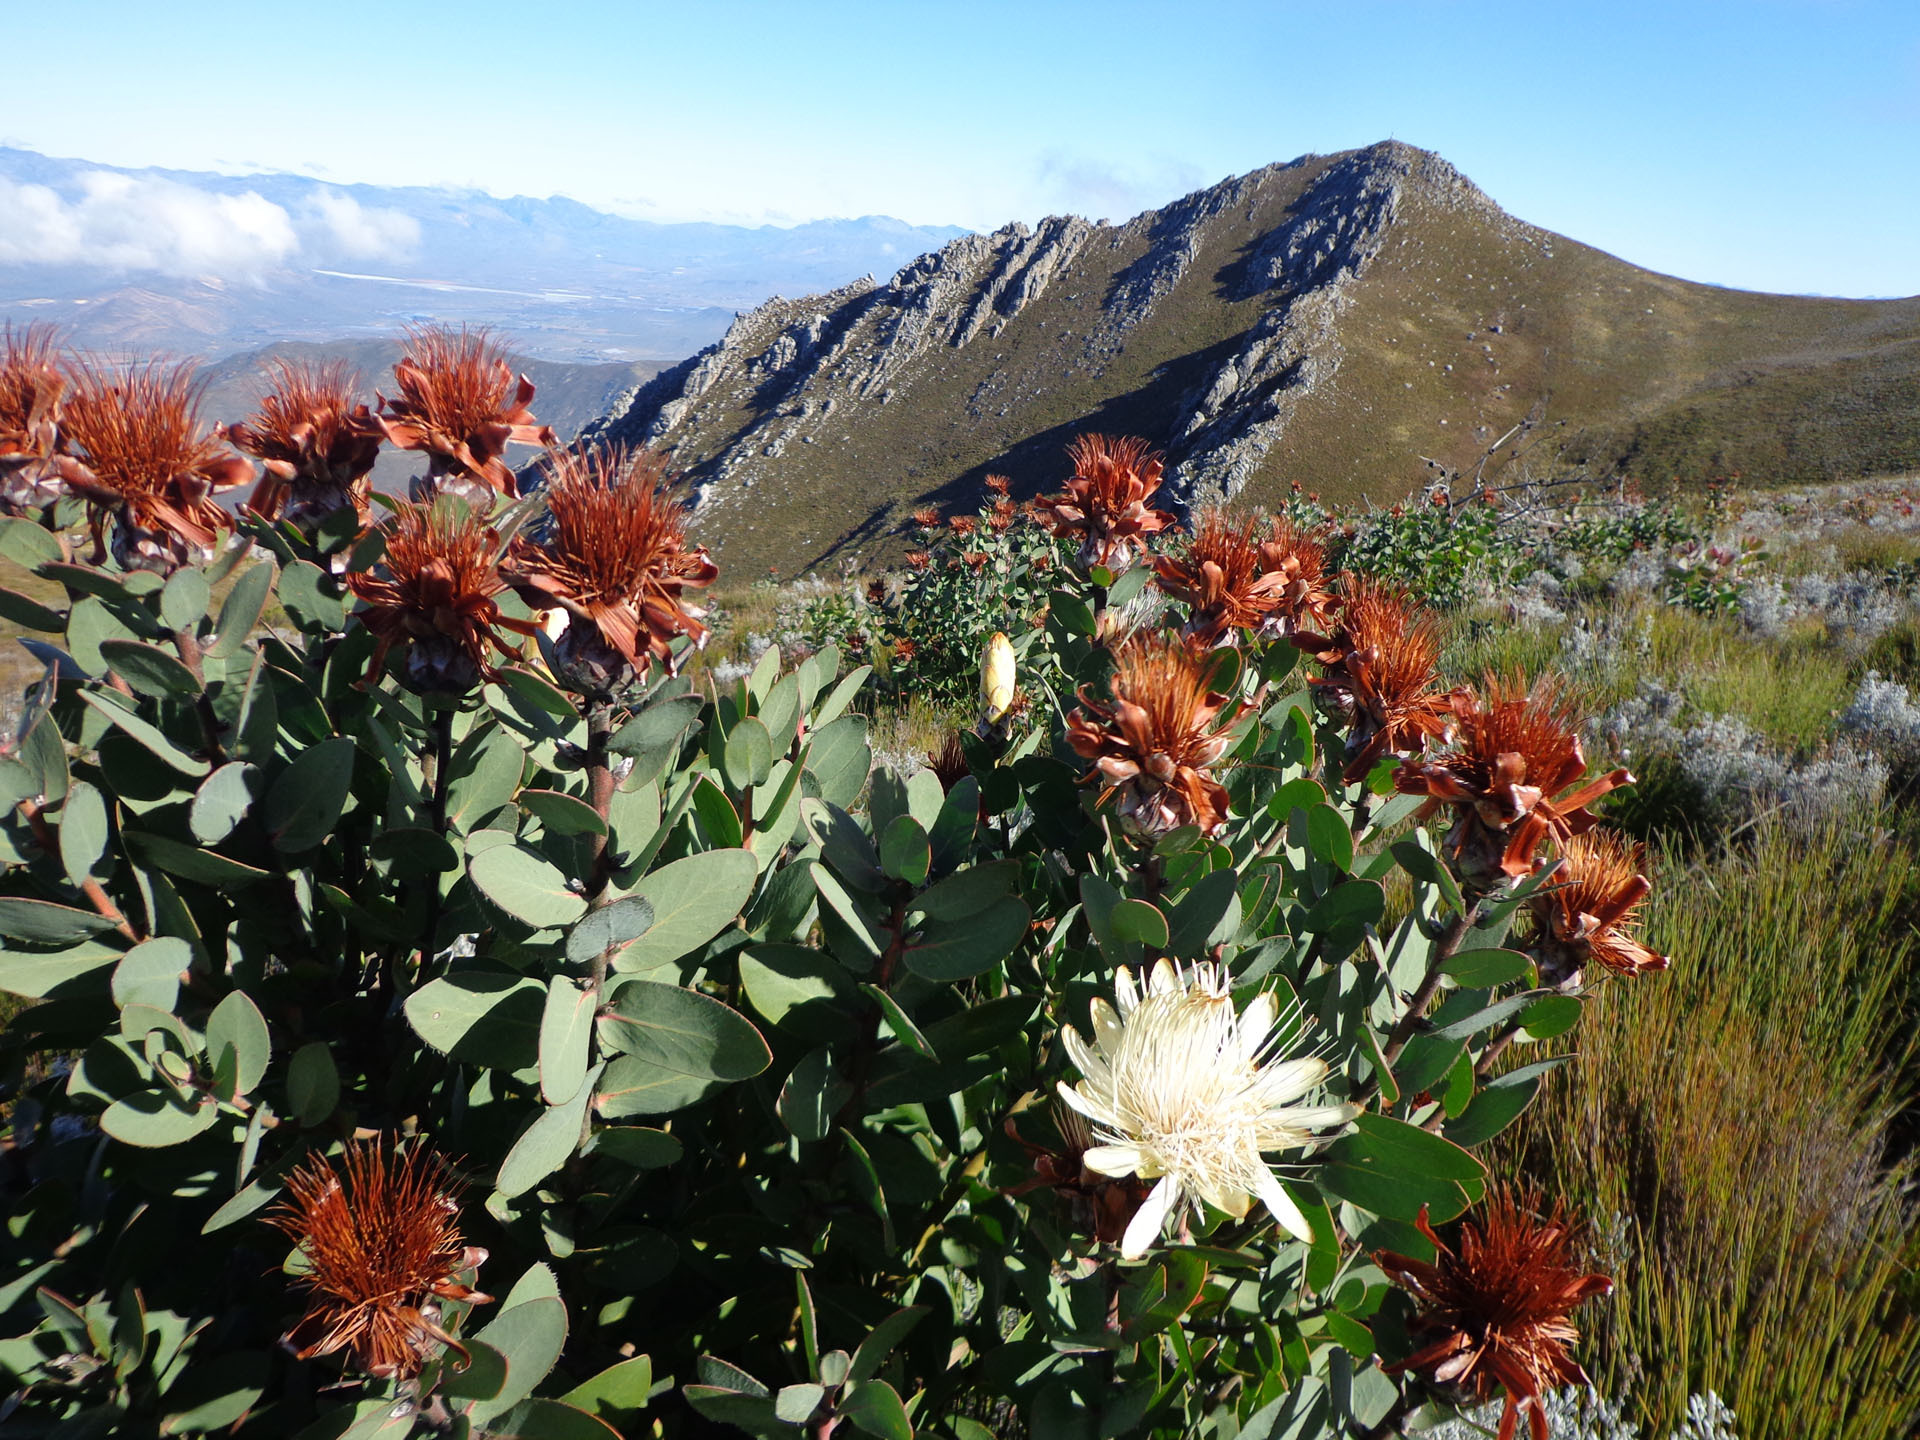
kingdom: Plantae
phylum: Tracheophyta
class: Magnoliopsida
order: Proteales
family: Proteaceae
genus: Protea
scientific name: Protea punctata
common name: Water sugarbush
